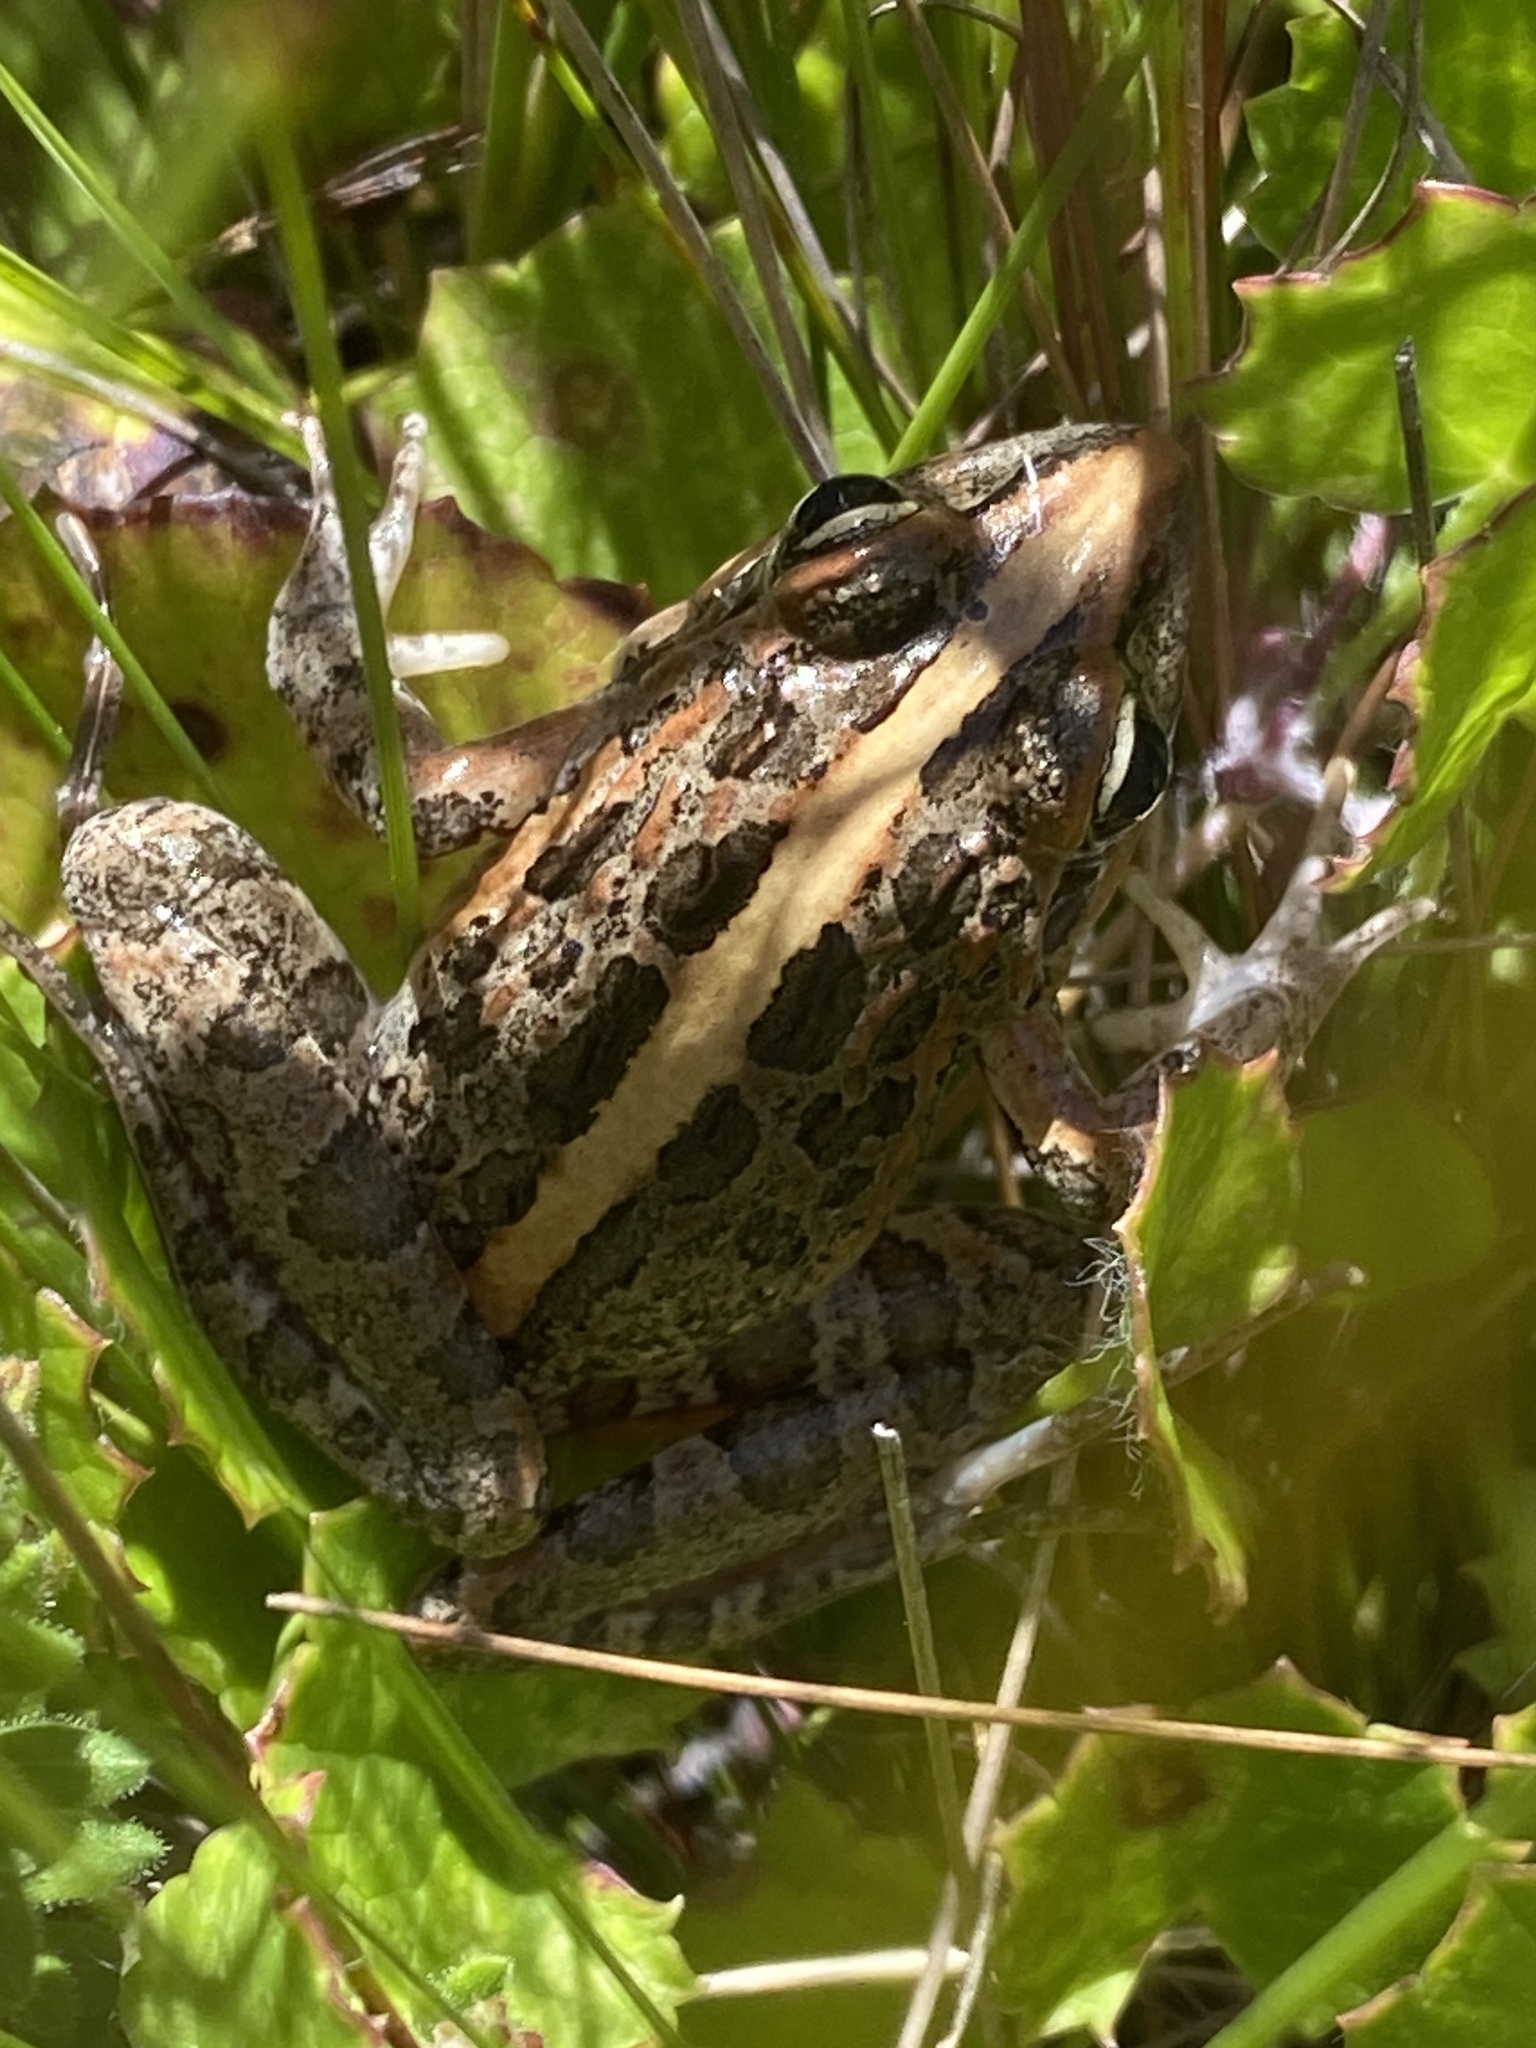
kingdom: Animalia
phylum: Chordata
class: Amphibia
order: Anura
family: Pyxicephalidae
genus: Strongylopus
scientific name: Strongylopus grayii
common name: Gray's stream frog
